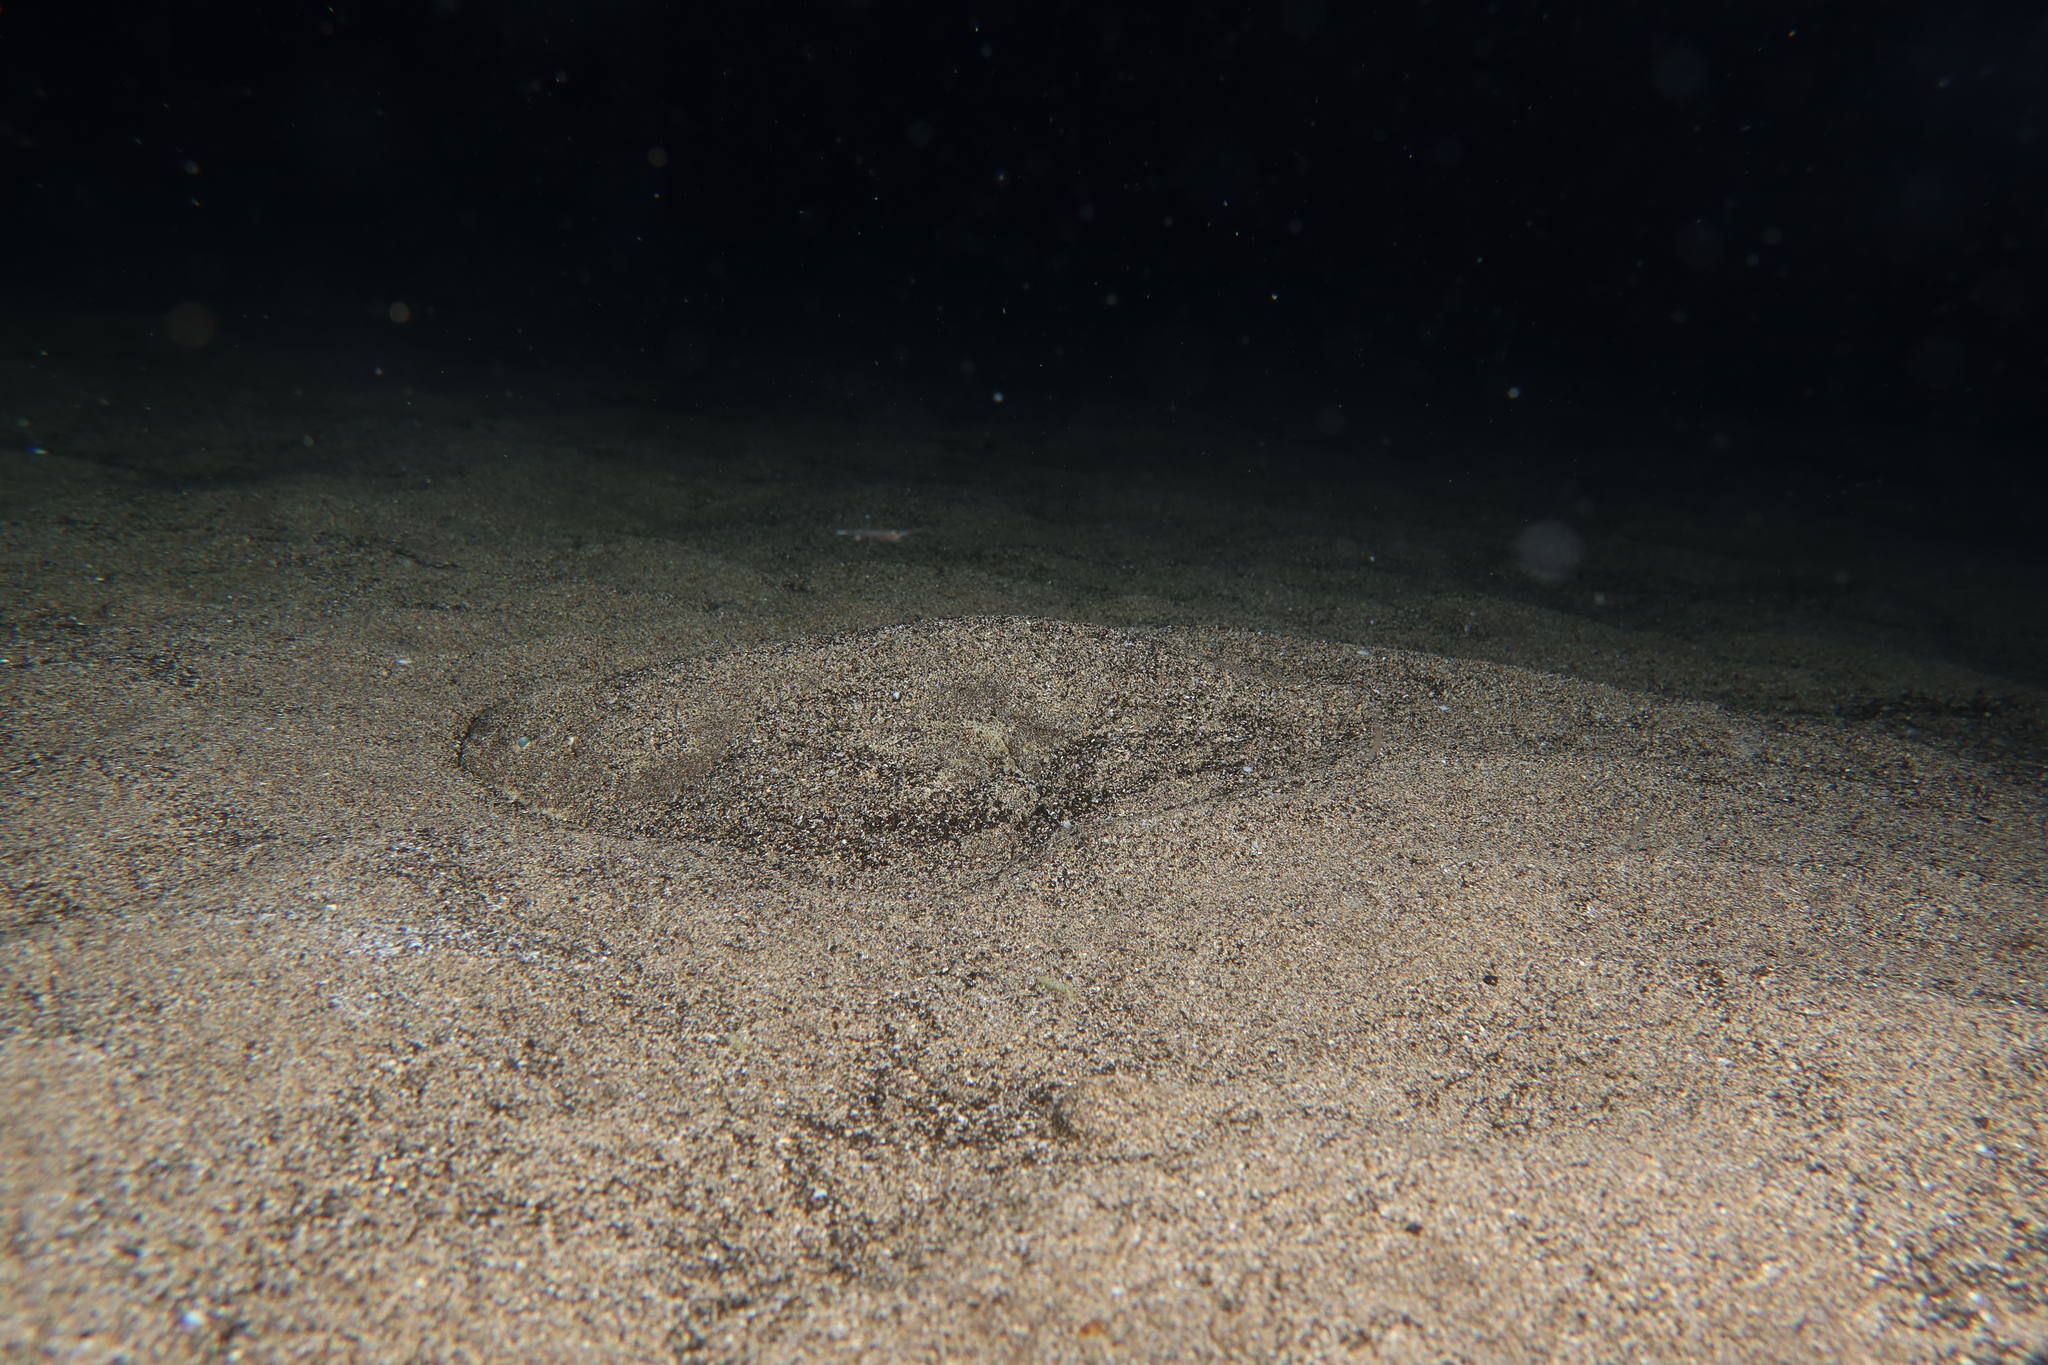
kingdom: Animalia
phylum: Chordata
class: Elasmobranchii
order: Squatiniformes
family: Squatinidae
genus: Squatina
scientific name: Squatina squatina
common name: Angel shark
